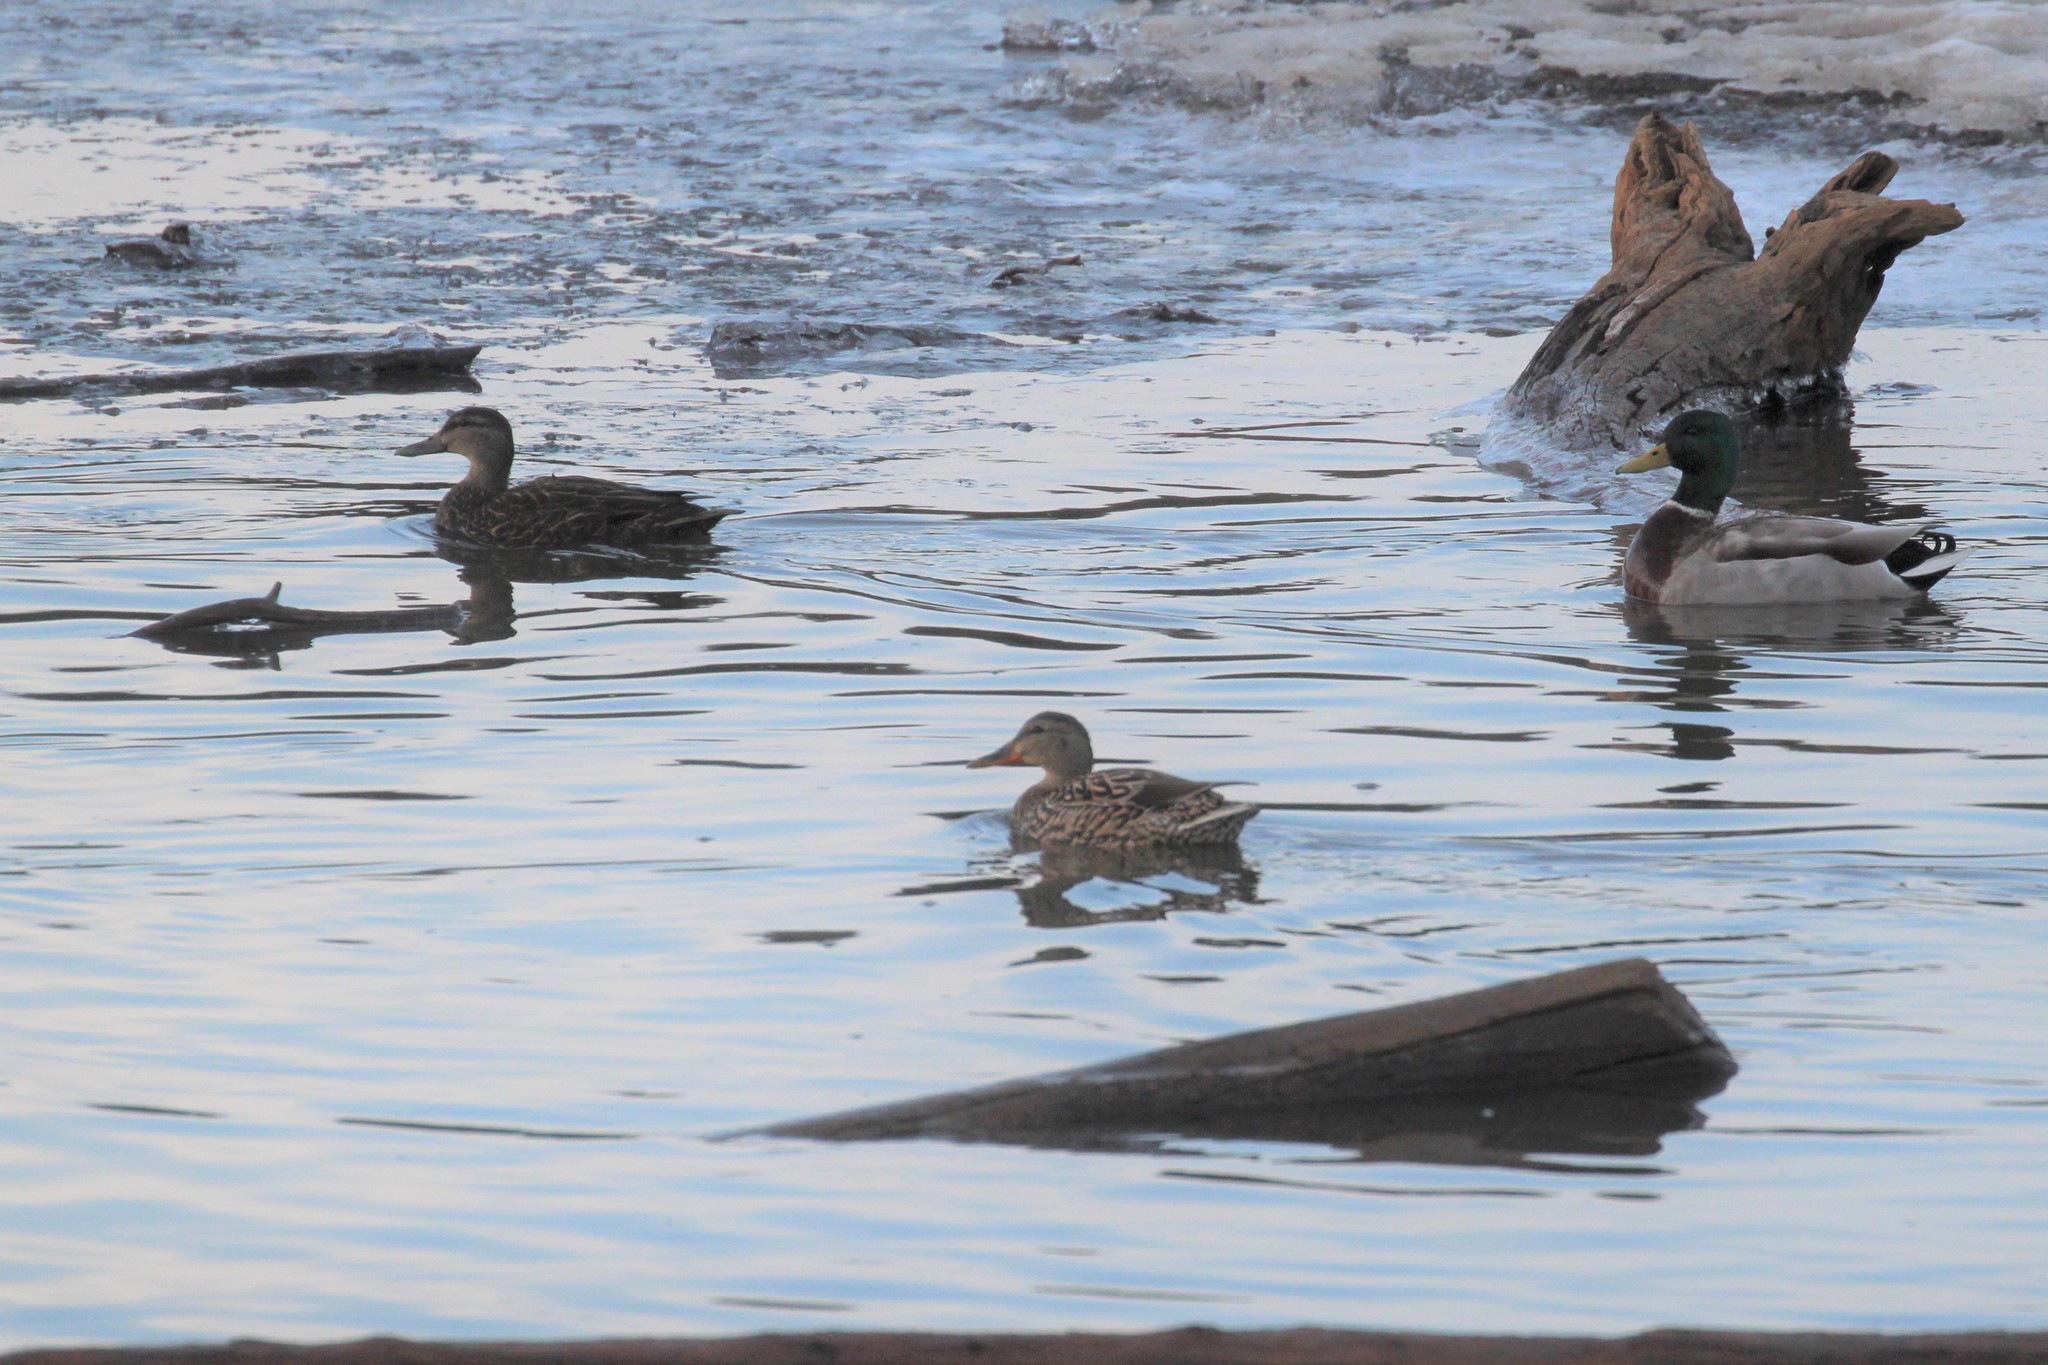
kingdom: Animalia
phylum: Chordata
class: Aves
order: Anseriformes
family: Anatidae
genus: Anas
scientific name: Anas platyrhynchos
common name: Mallard
